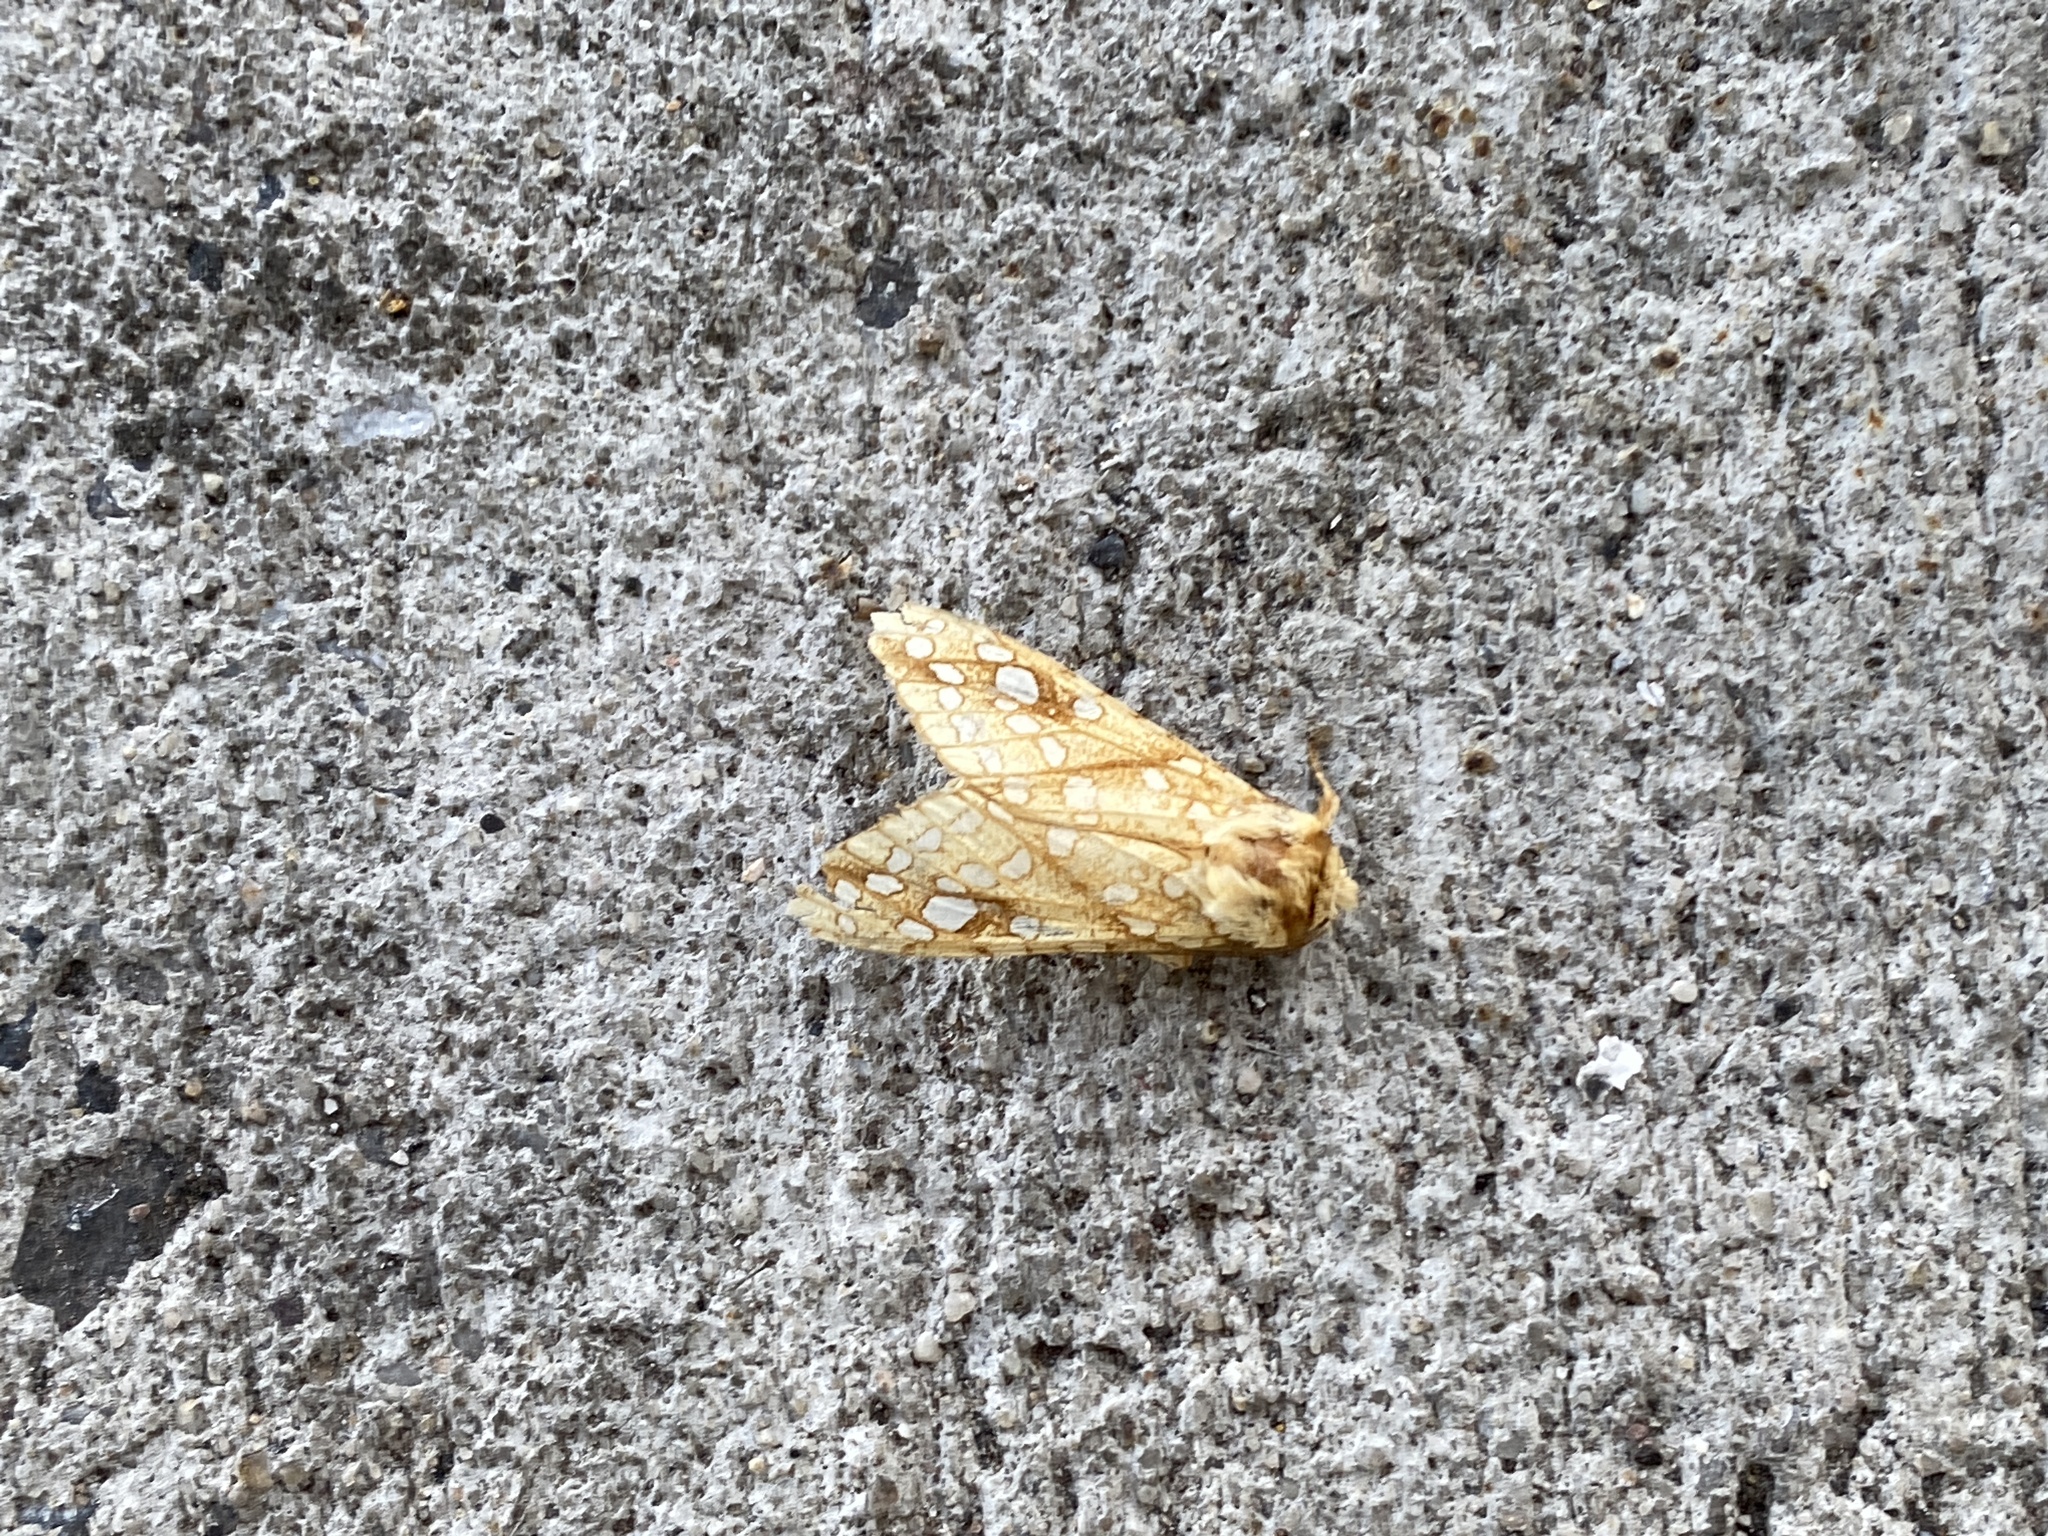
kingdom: Animalia
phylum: Arthropoda
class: Insecta
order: Lepidoptera
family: Erebidae
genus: Lophocampa
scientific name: Lophocampa caryae
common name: Hickory tussock moth
